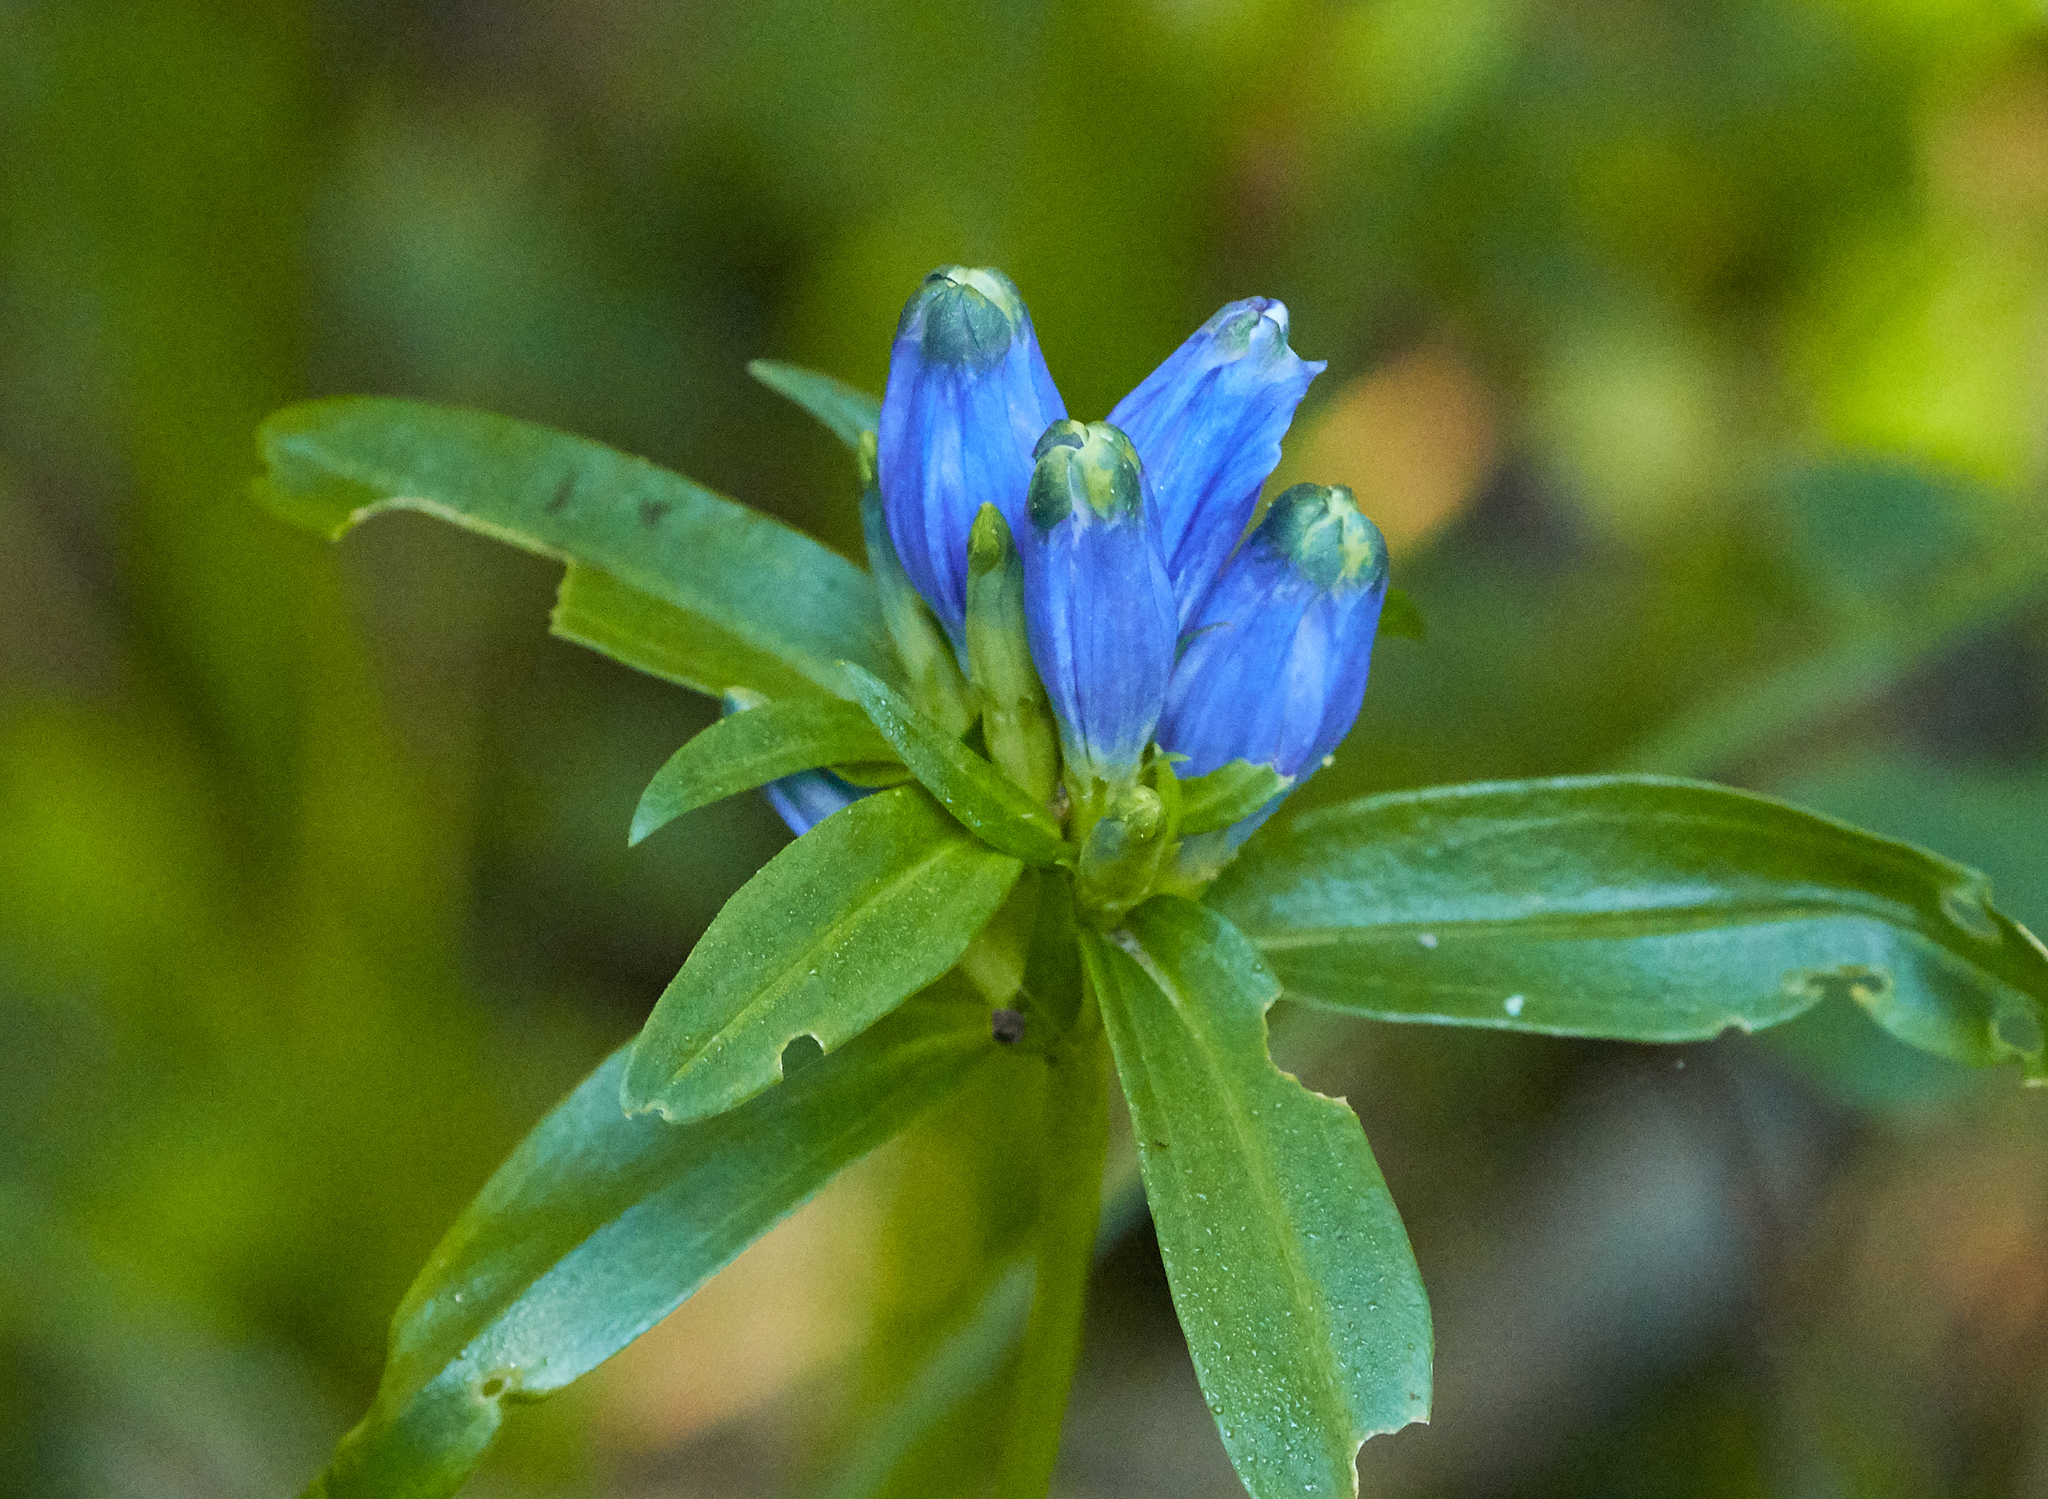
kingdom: Plantae
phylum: Tracheophyta
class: Magnoliopsida
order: Gentianales
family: Gentianaceae
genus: Gentiana
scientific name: Gentiana linearis
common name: Bastard gentian
